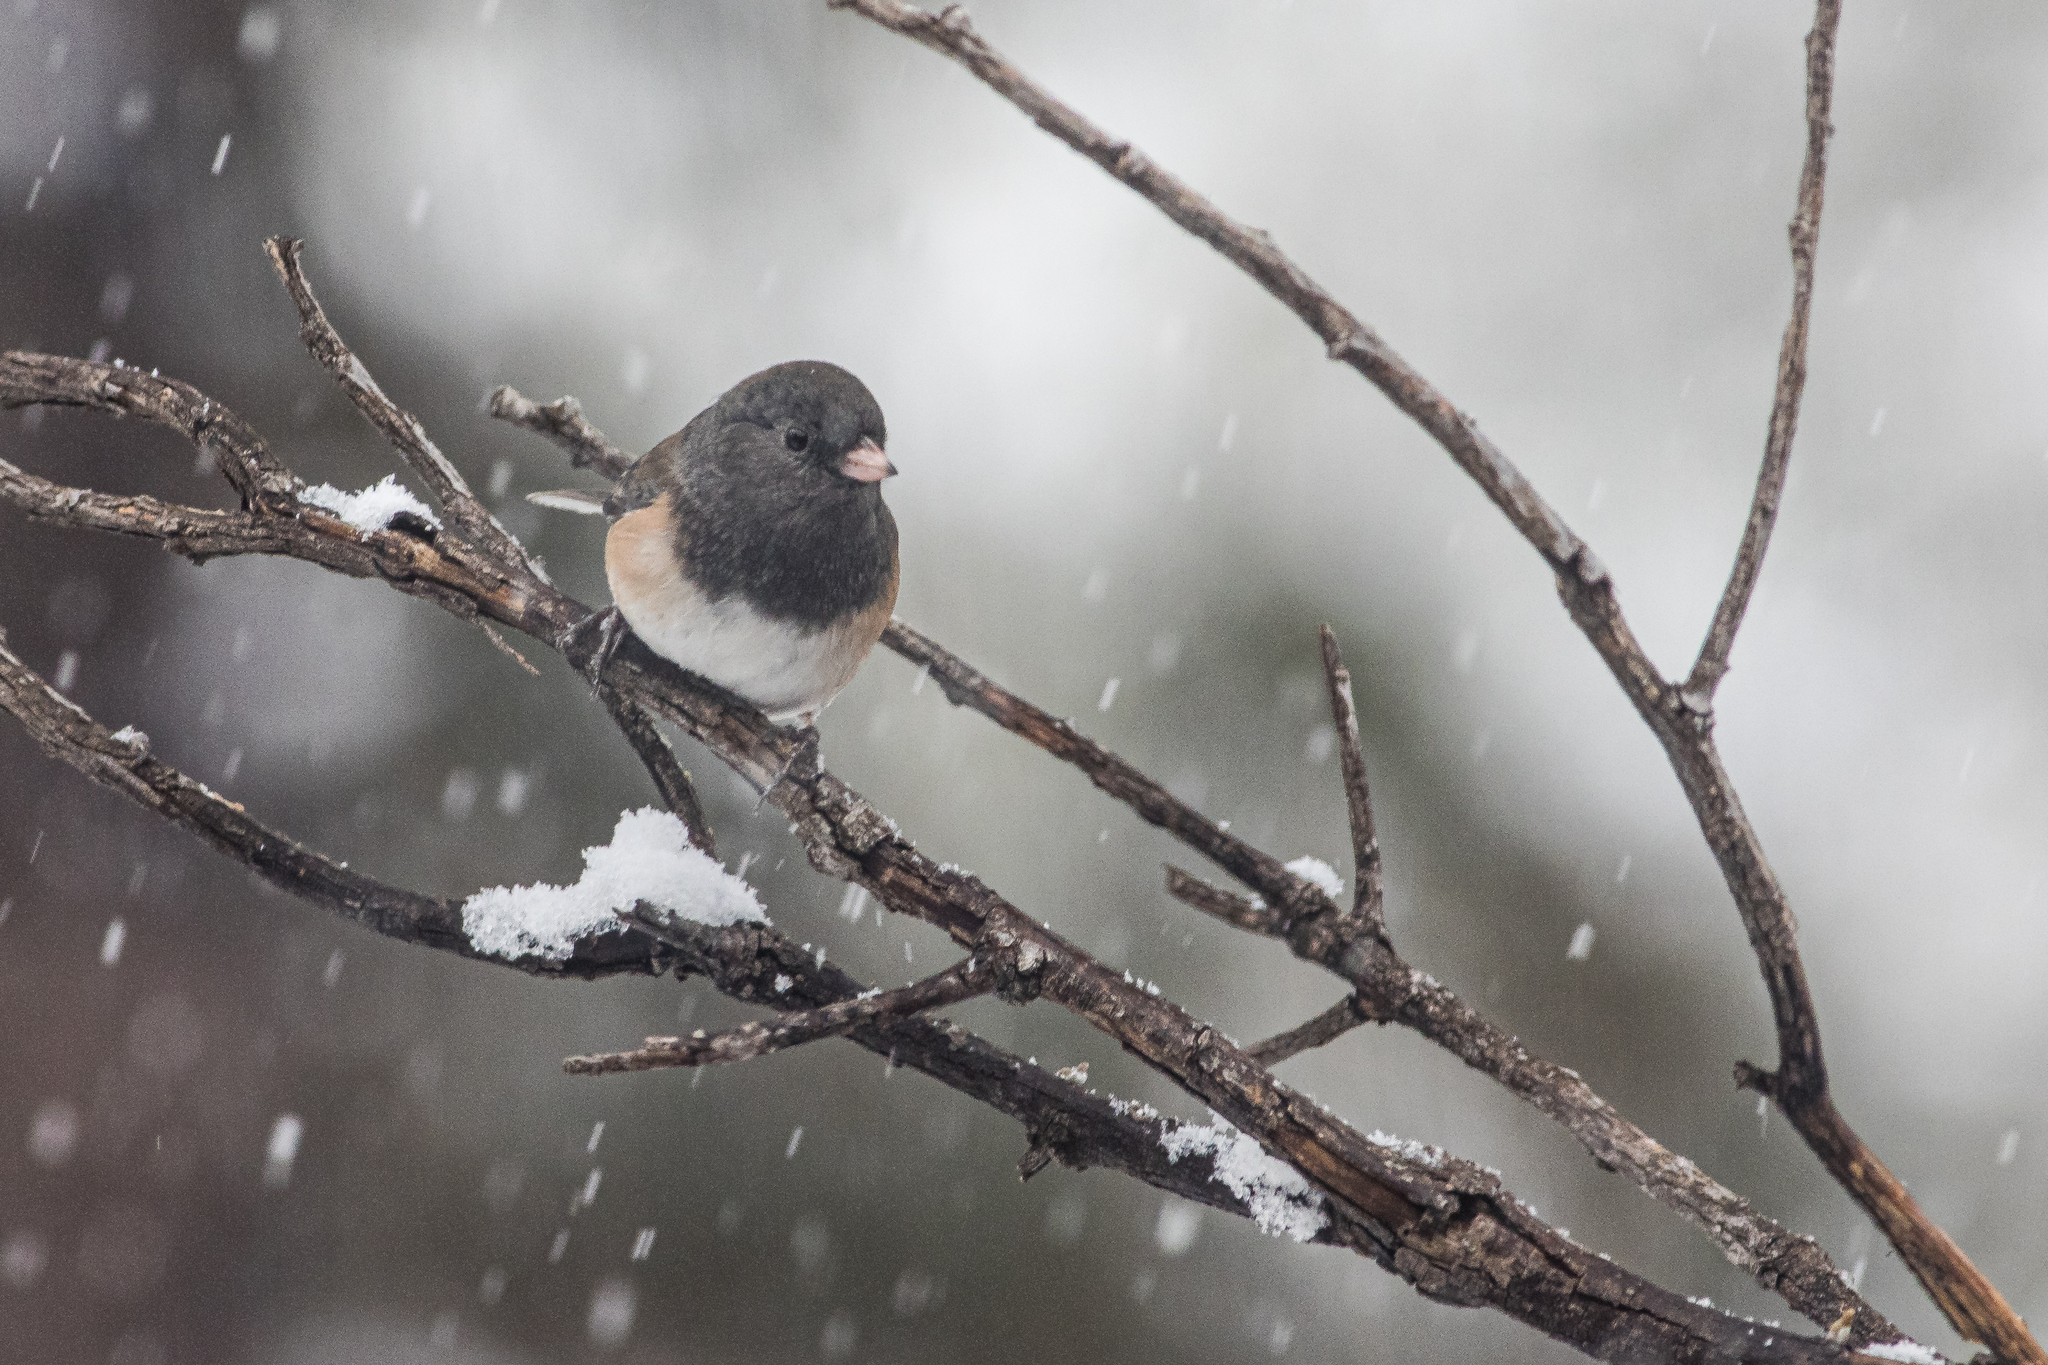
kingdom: Animalia
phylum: Chordata
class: Aves
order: Passeriformes
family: Passerellidae
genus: Junco
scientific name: Junco hyemalis
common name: Dark-eyed junco
